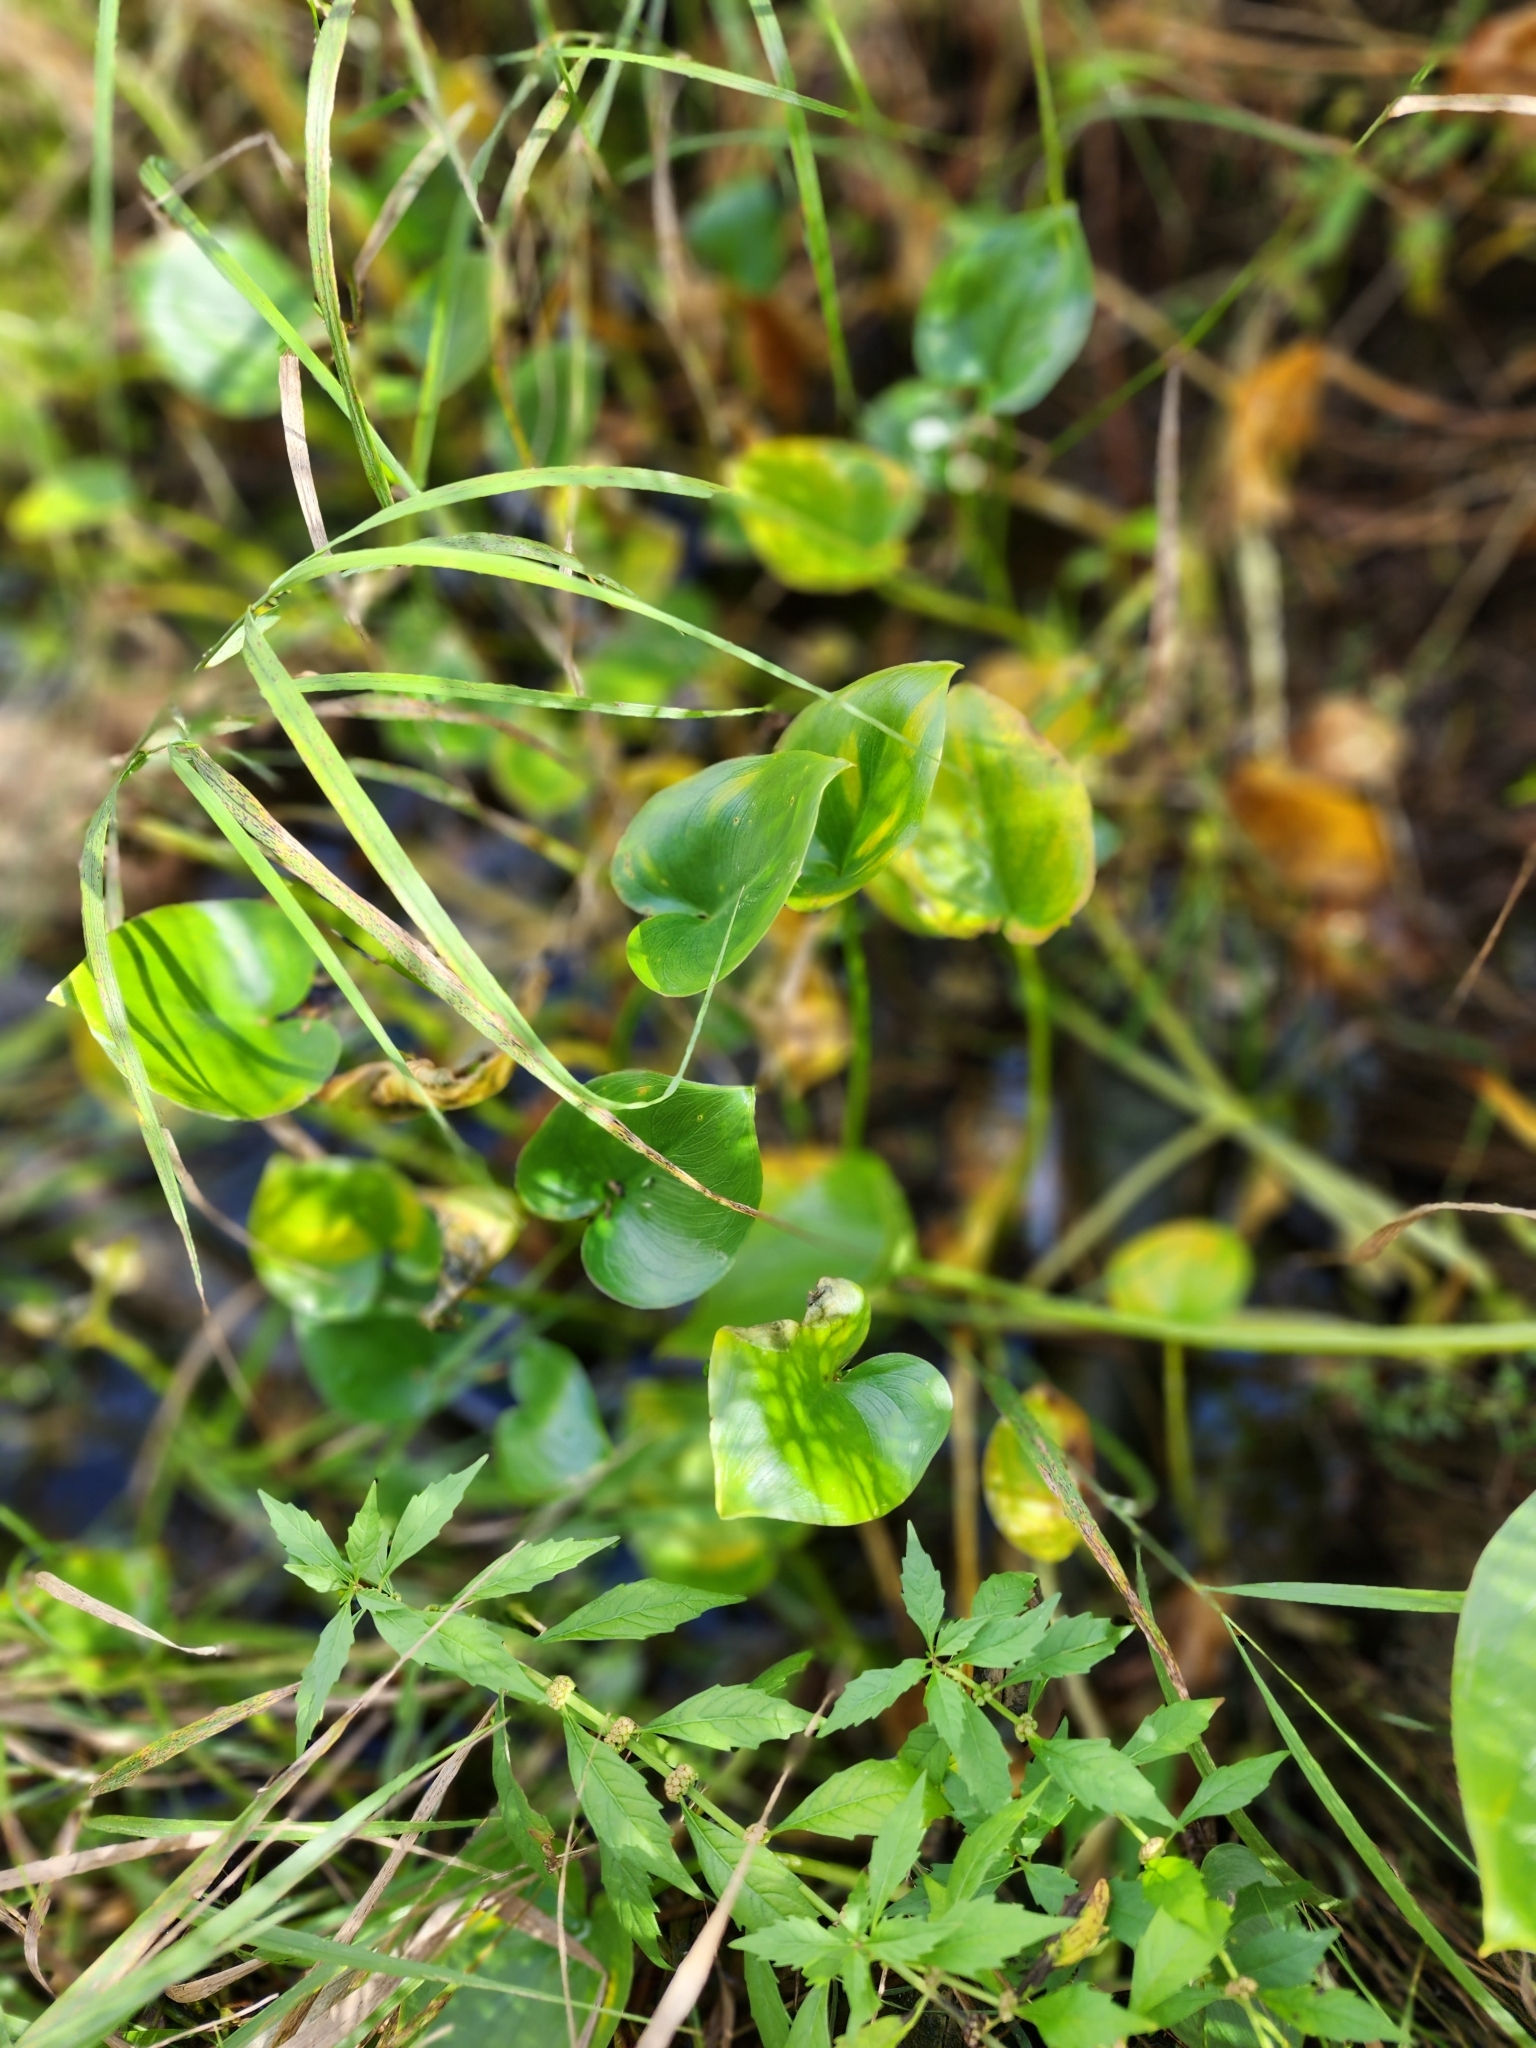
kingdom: Plantae
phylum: Tracheophyta
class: Liliopsida
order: Alismatales
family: Araceae
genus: Calla
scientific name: Calla palustris
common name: Bog arum
